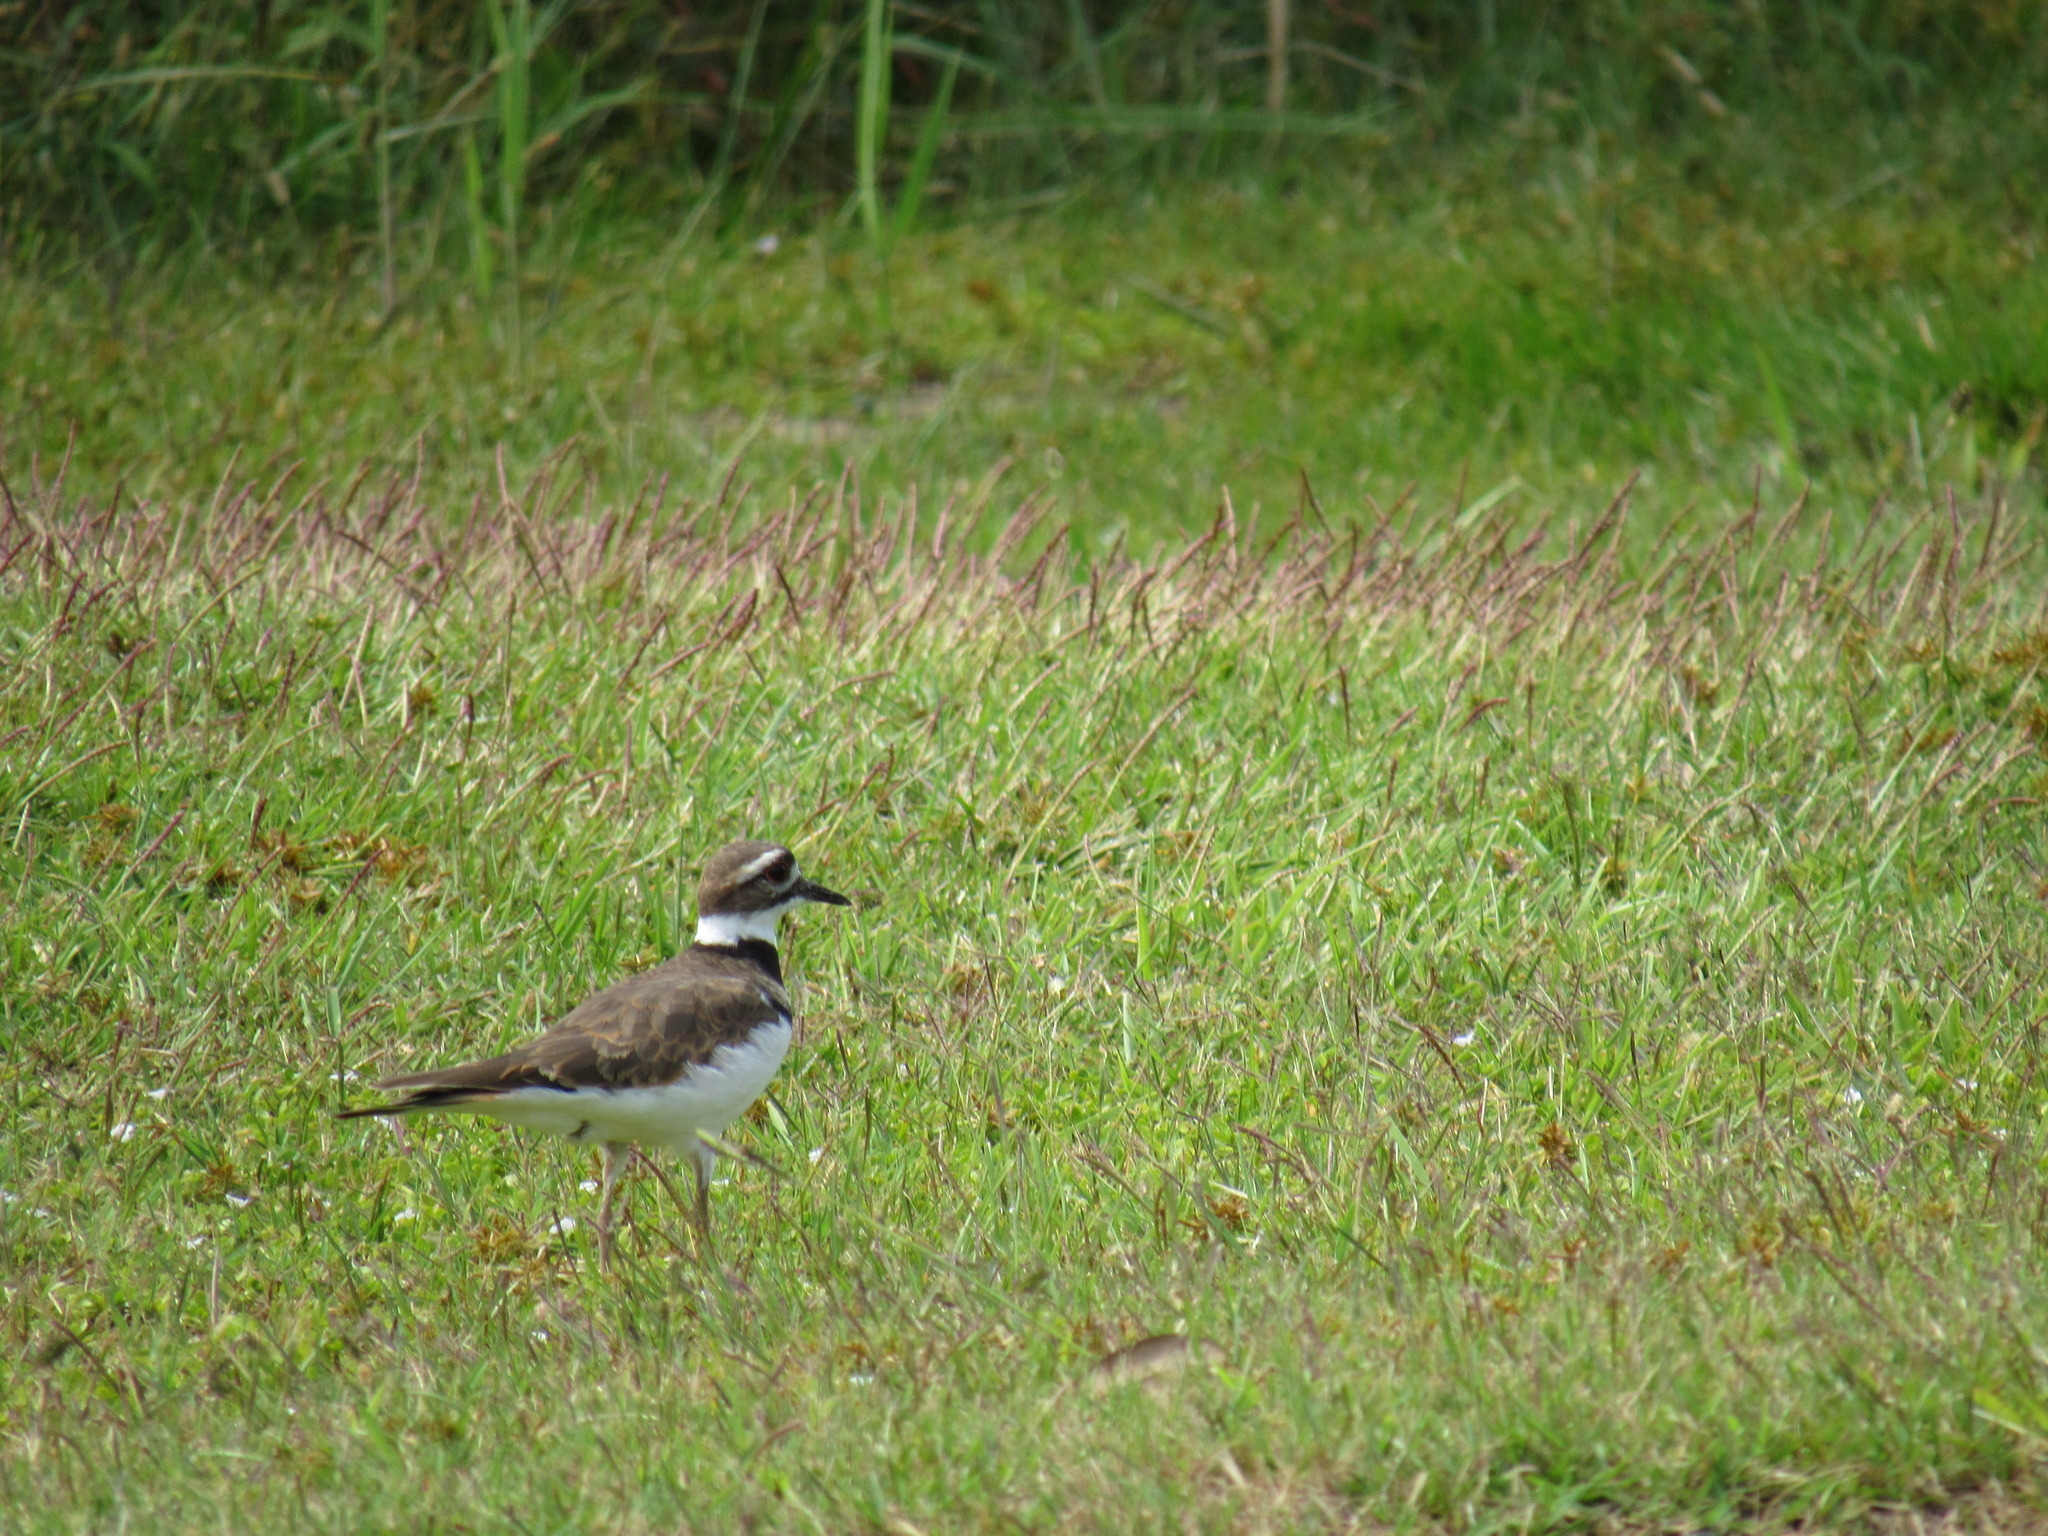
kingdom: Animalia
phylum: Chordata
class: Aves
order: Charadriiformes
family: Charadriidae
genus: Charadrius
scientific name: Charadrius vociferus
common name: Killdeer
